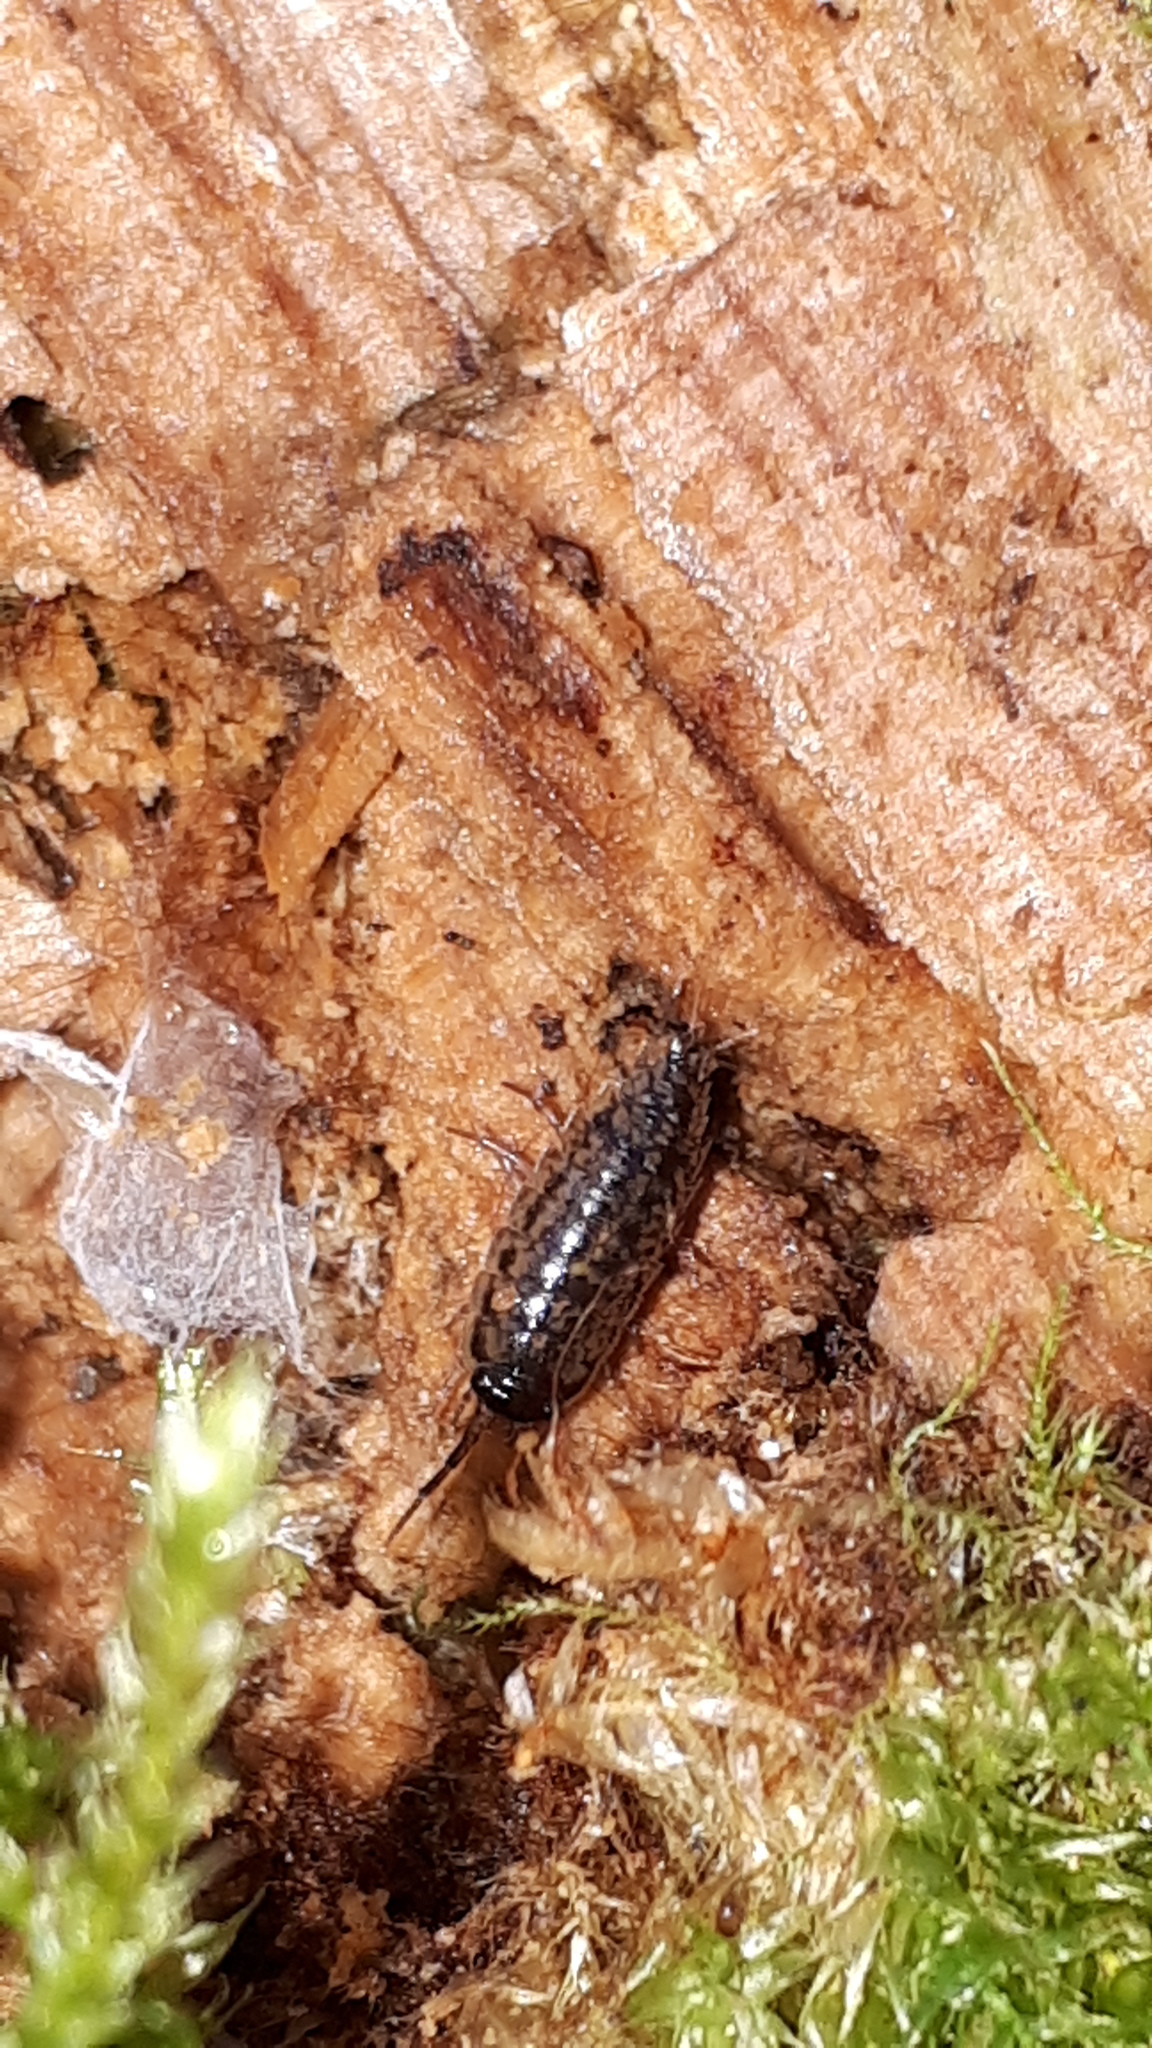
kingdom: Animalia
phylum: Arthropoda
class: Malacostraca
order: Isopoda
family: Ligiidae
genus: Ligidium
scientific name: Ligidium hypnorum
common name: Moss slater
